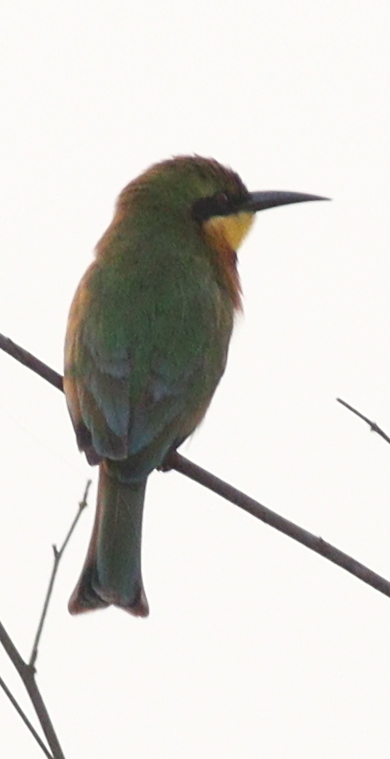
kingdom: Animalia
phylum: Chordata
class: Aves
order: Coraciiformes
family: Meropidae
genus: Merops
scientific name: Merops pusillus
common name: Little bee-eater
